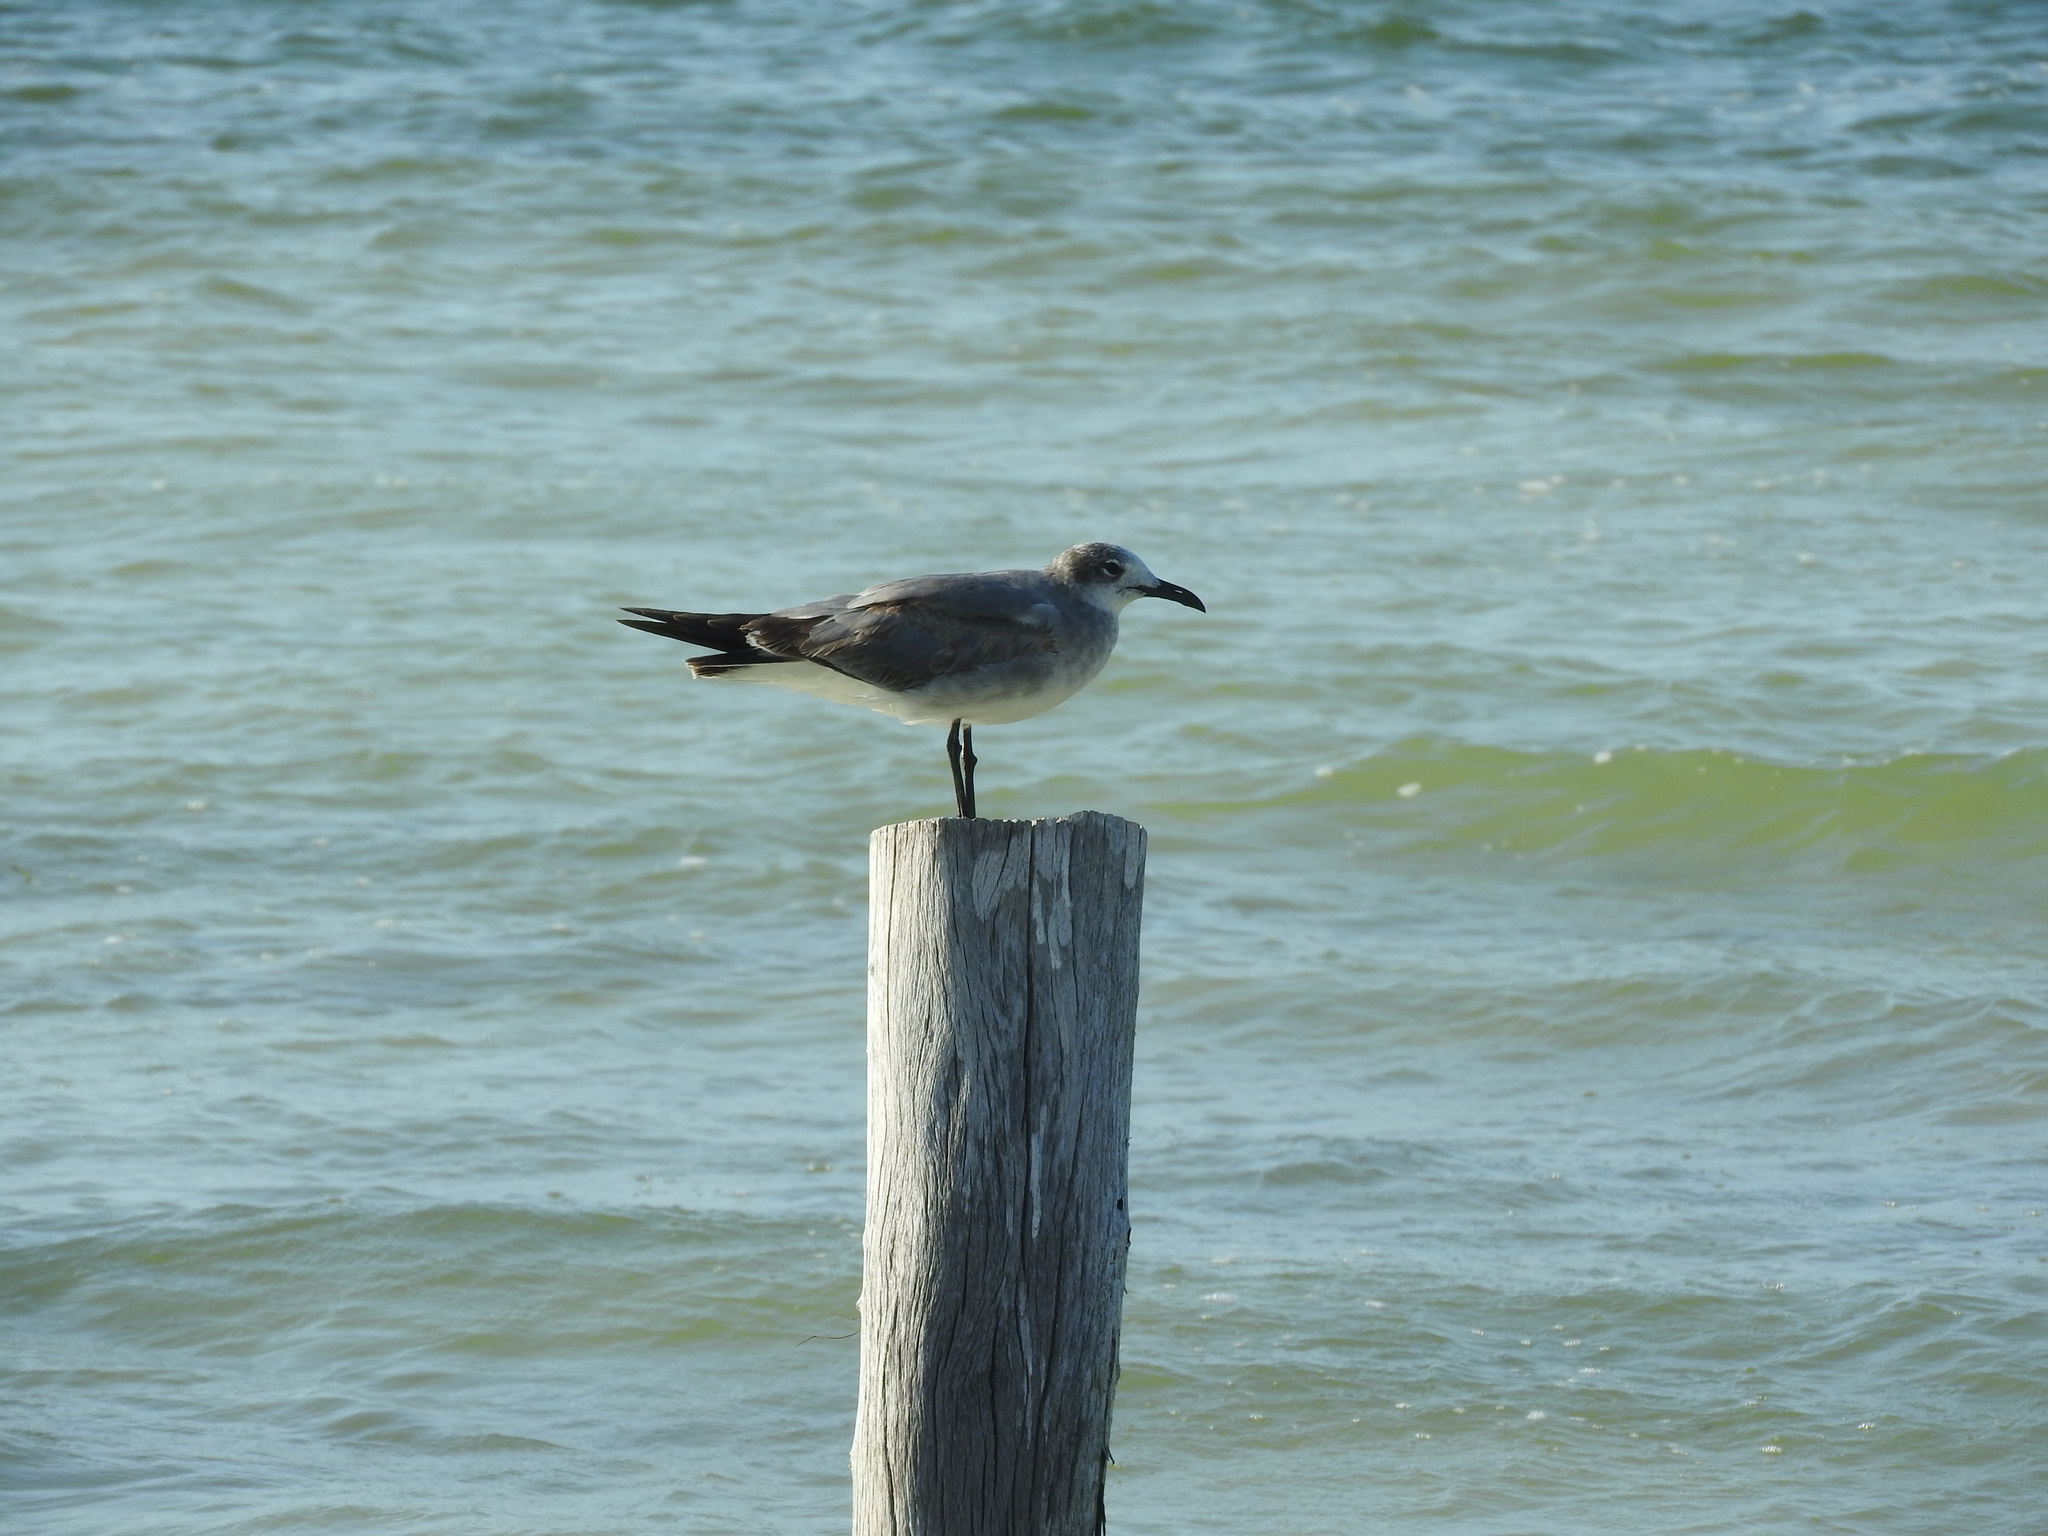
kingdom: Animalia
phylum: Chordata
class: Aves
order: Charadriiformes
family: Laridae
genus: Leucophaeus
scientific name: Leucophaeus atricilla
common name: Laughing gull
